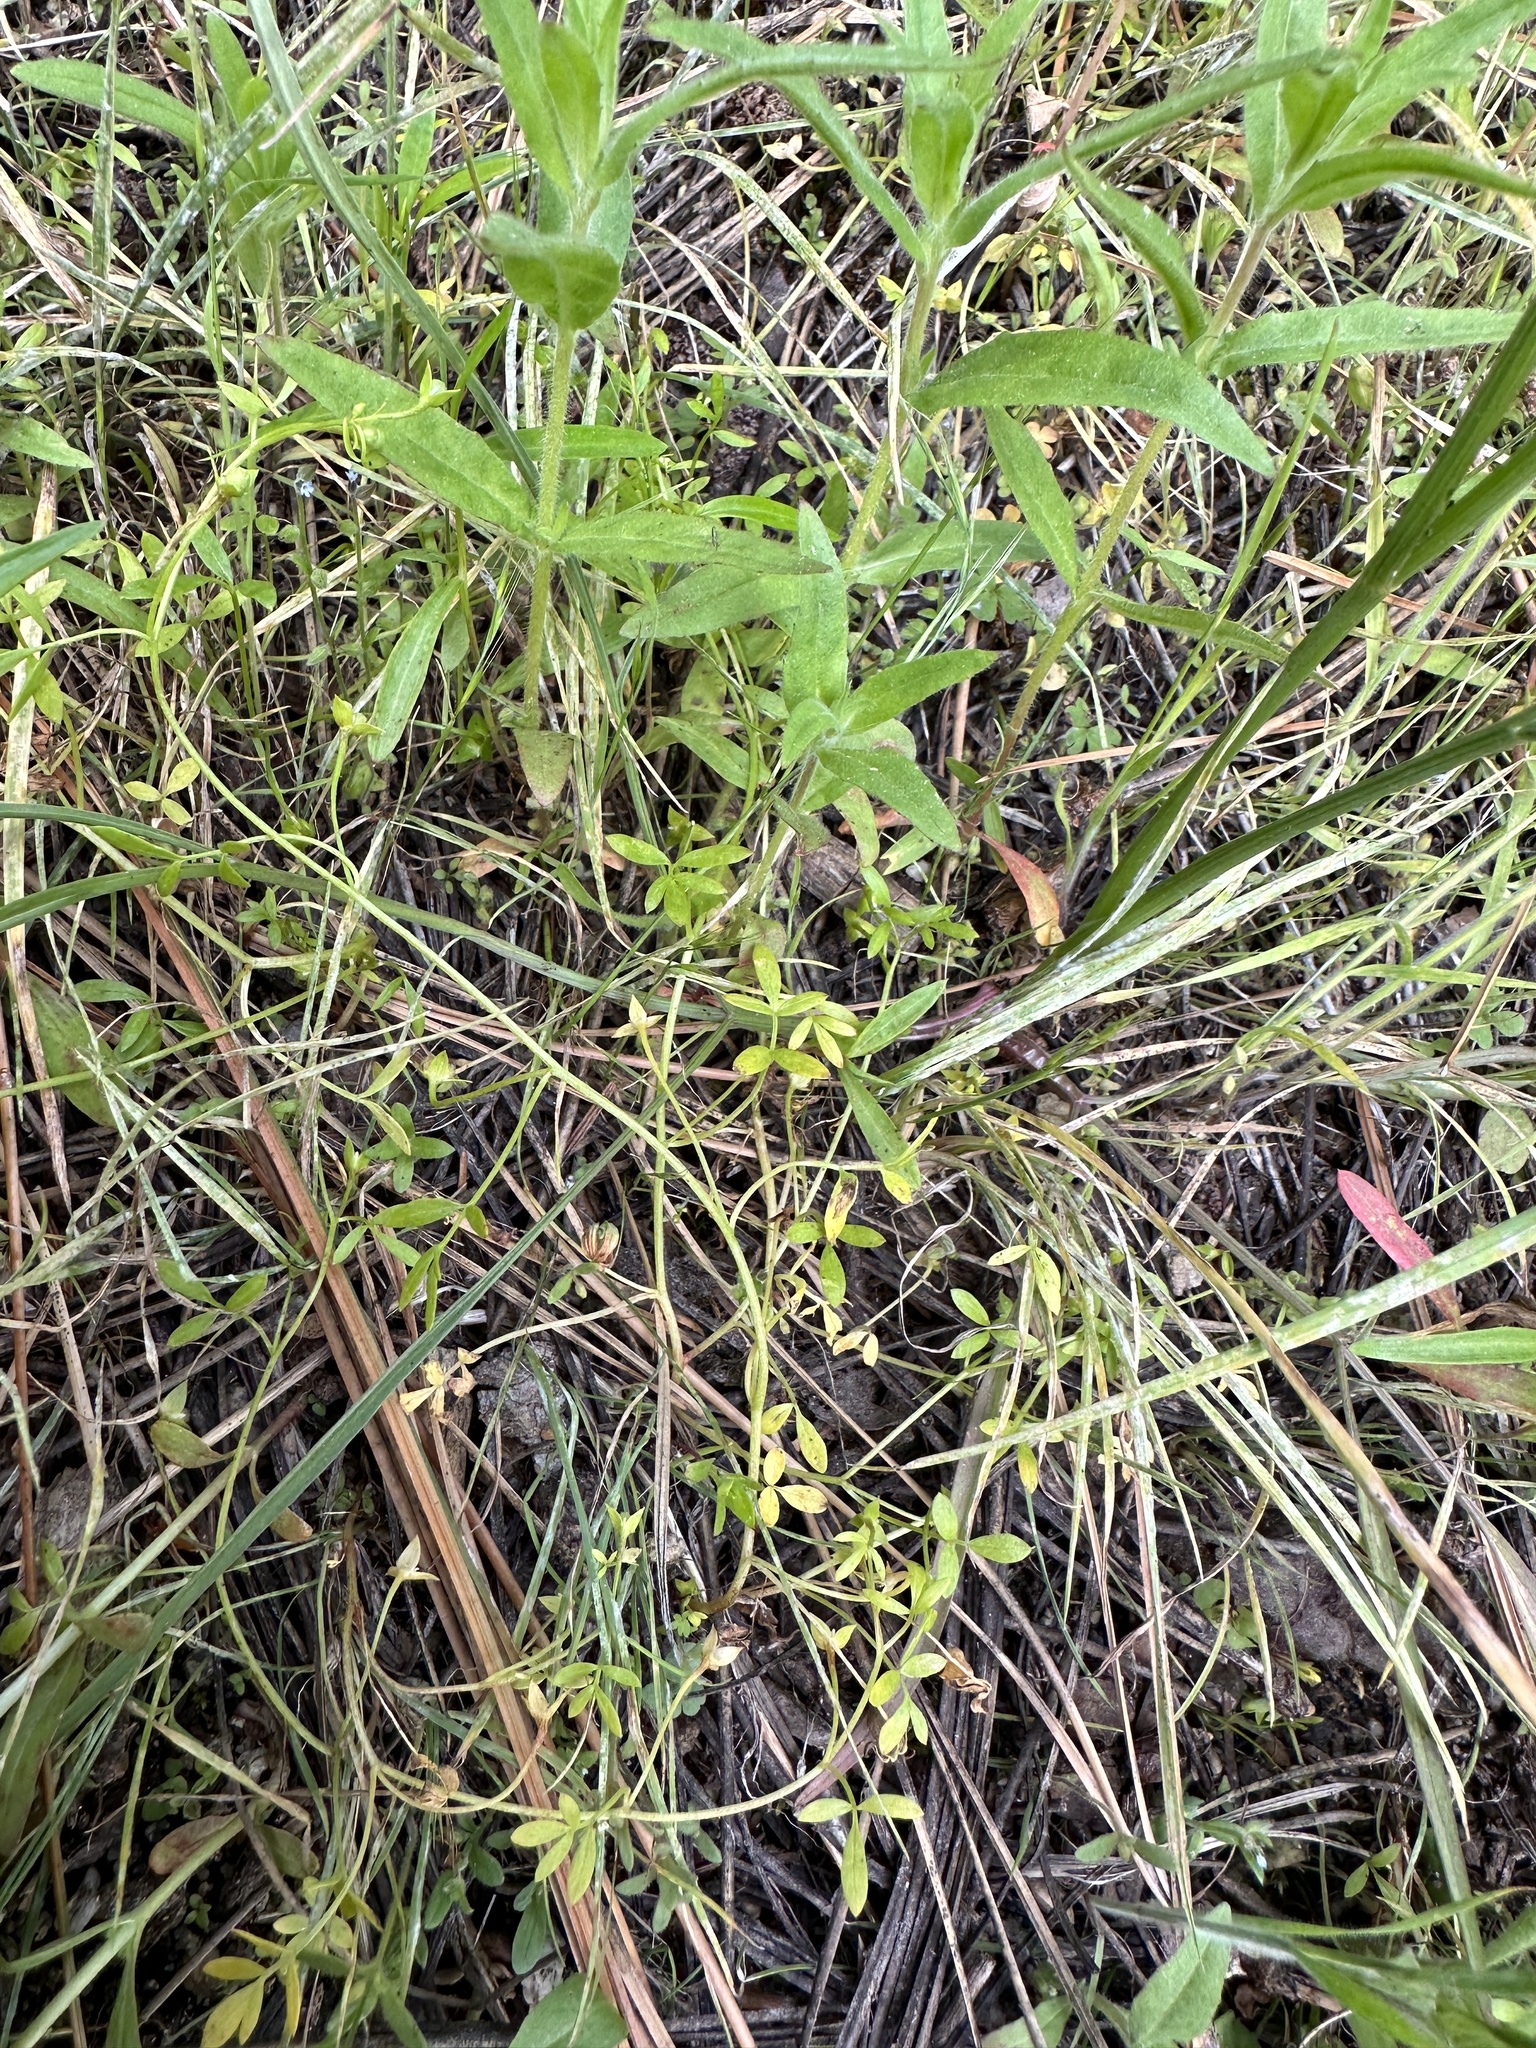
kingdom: Plantae
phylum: Tracheophyta
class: Magnoliopsida
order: Brassicales
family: Limnanthaceae
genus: Floerkea
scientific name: Floerkea proserpinacoides
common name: False mermaid
